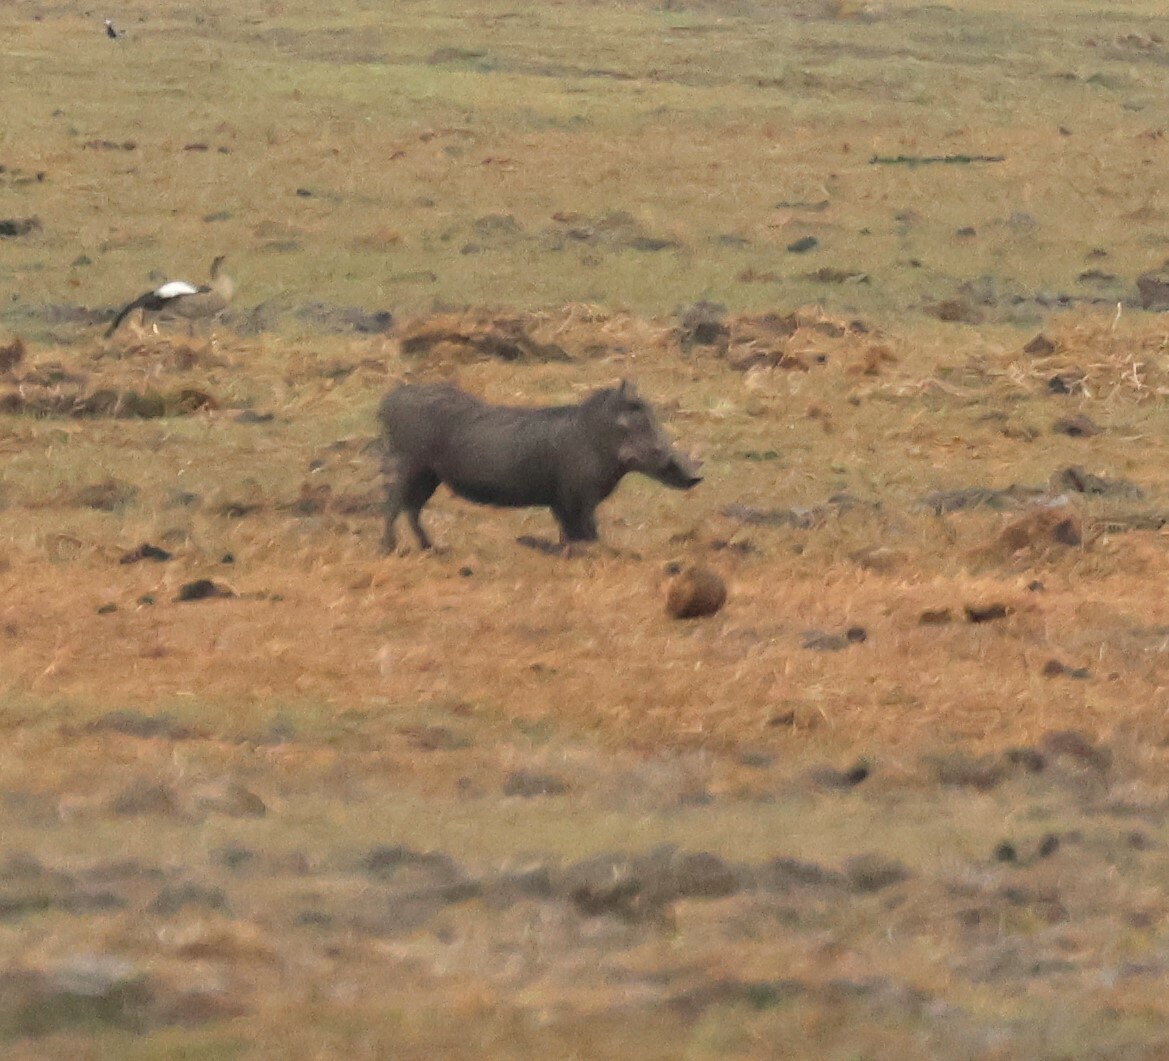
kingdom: Animalia
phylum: Chordata
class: Mammalia
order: Artiodactyla
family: Suidae
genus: Phacochoerus
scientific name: Phacochoerus africanus
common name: Common warthog
